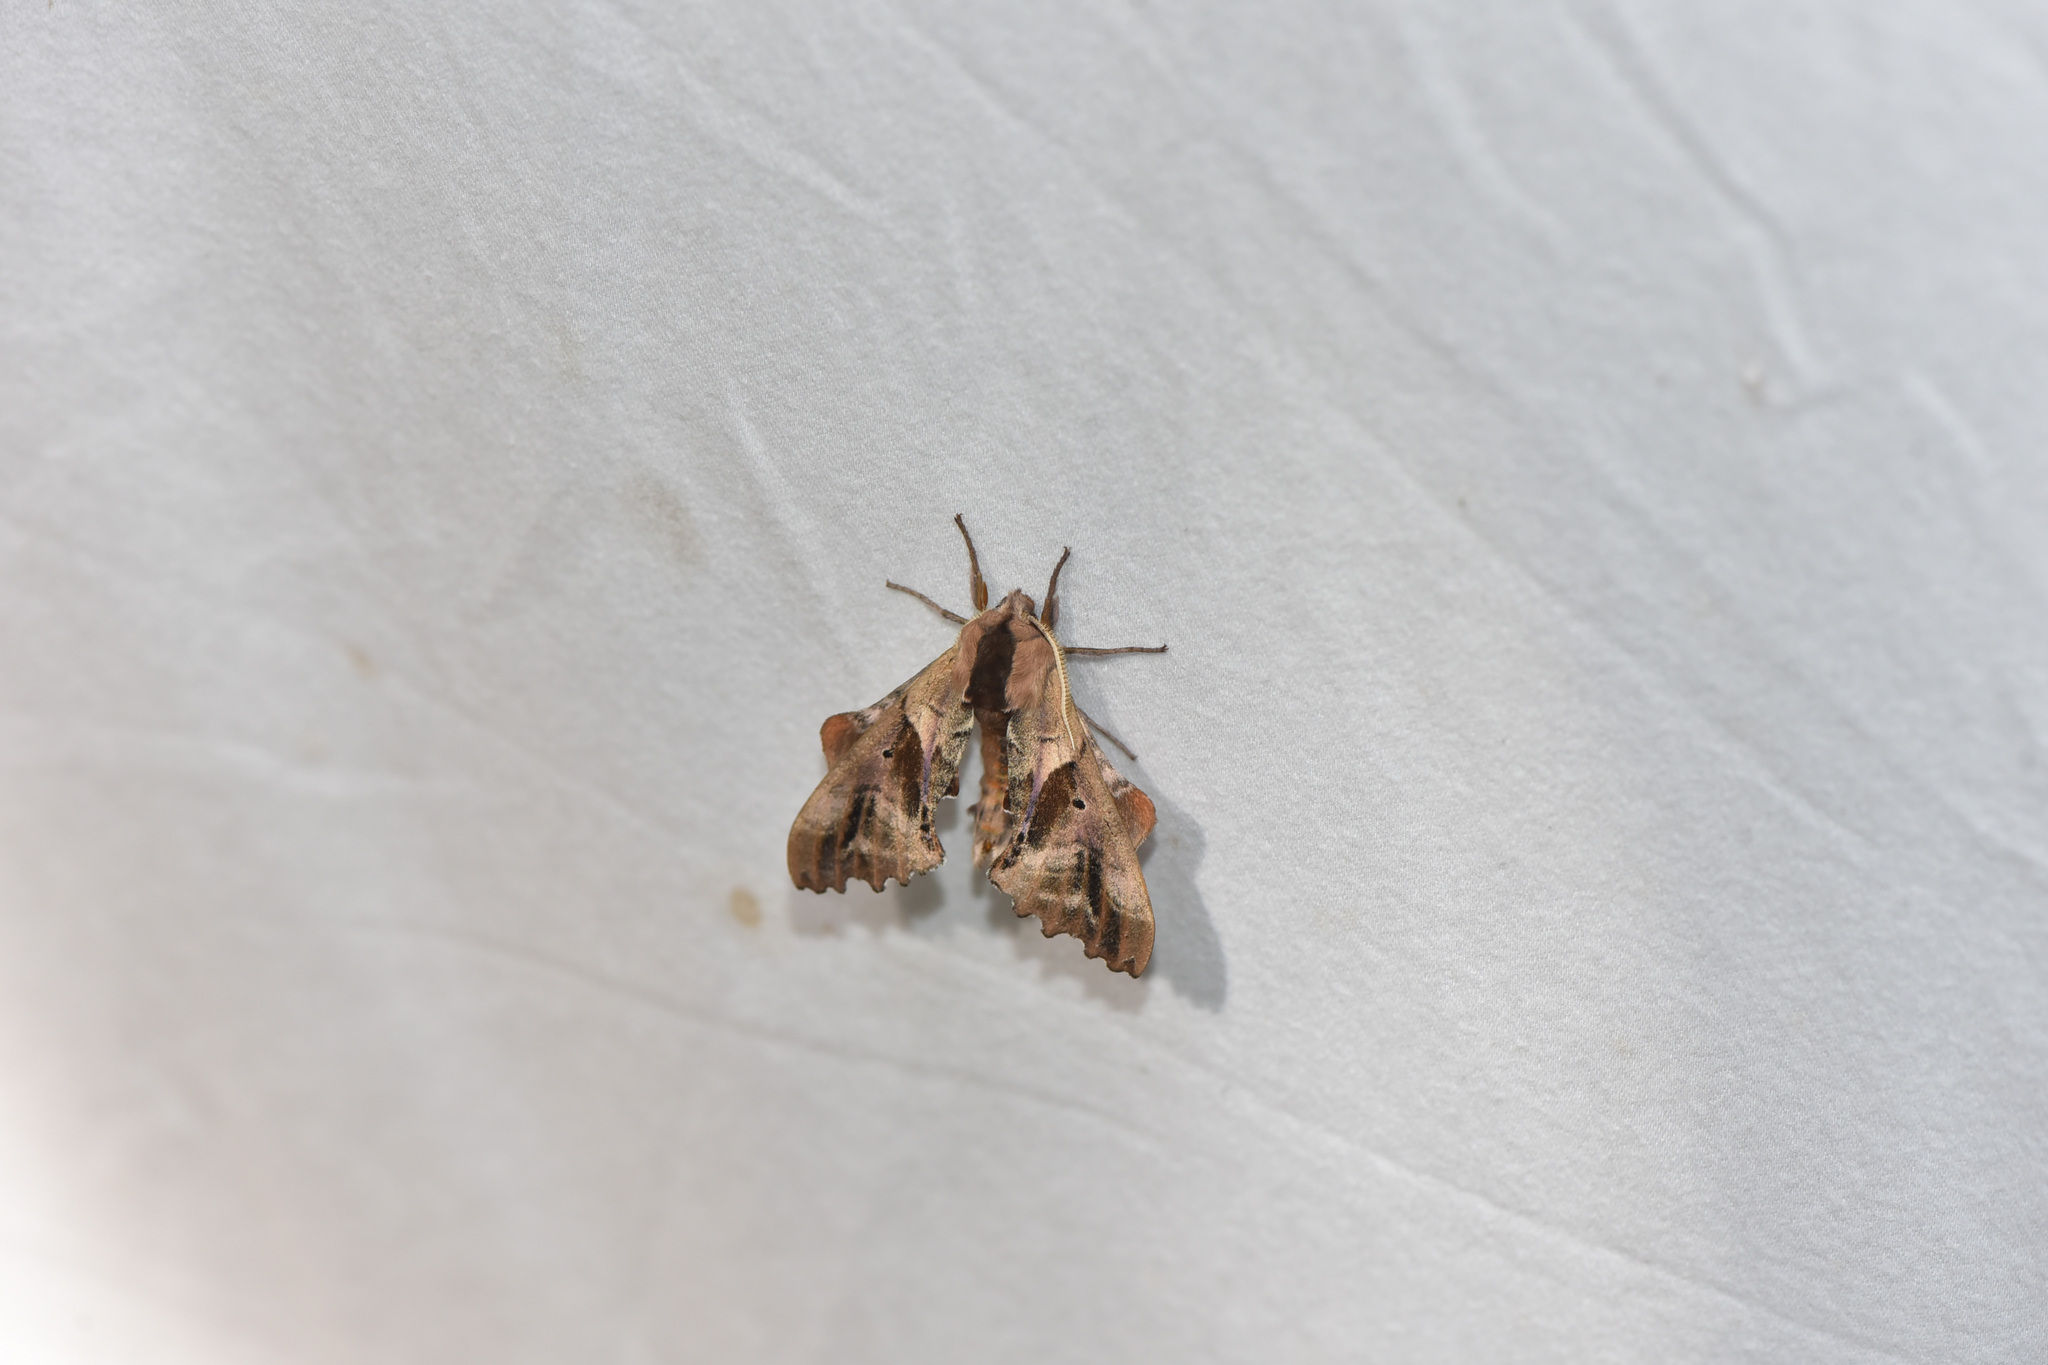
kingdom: Animalia
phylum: Arthropoda
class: Insecta
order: Lepidoptera
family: Sphingidae
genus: Paonias
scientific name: Paonias excaecata
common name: Blind-eyed sphinx
